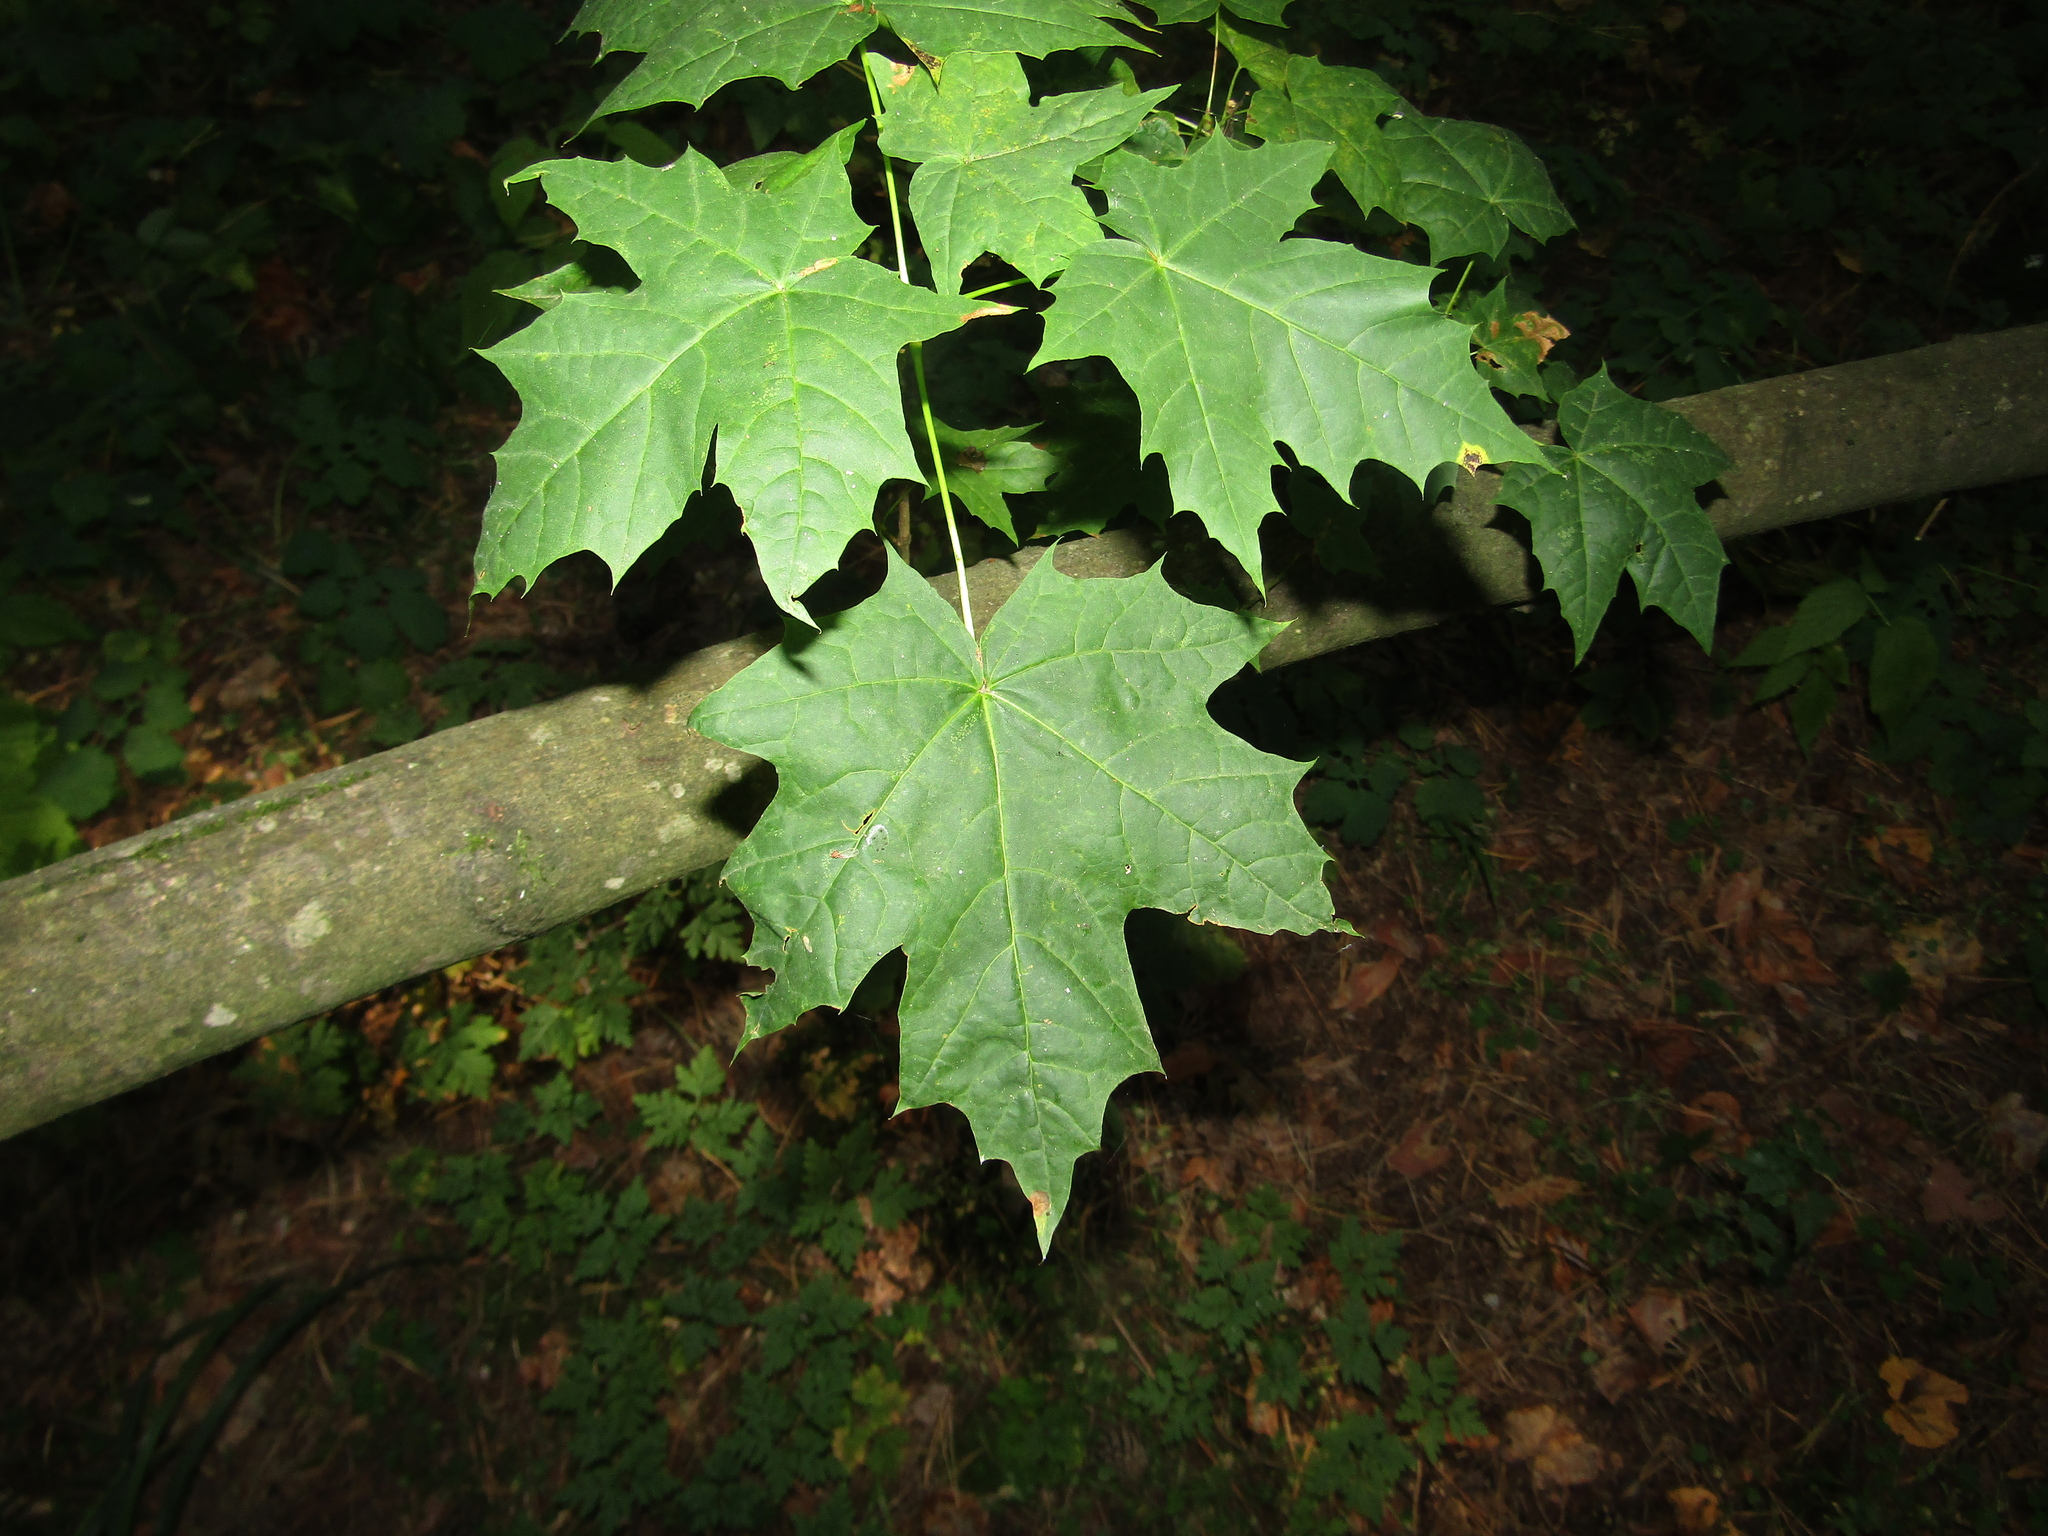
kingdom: Plantae
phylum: Tracheophyta
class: Magnoliopsida
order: Sapindales
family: Sapindaceae
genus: Acer
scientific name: Acer platanoides
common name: Norway maple
